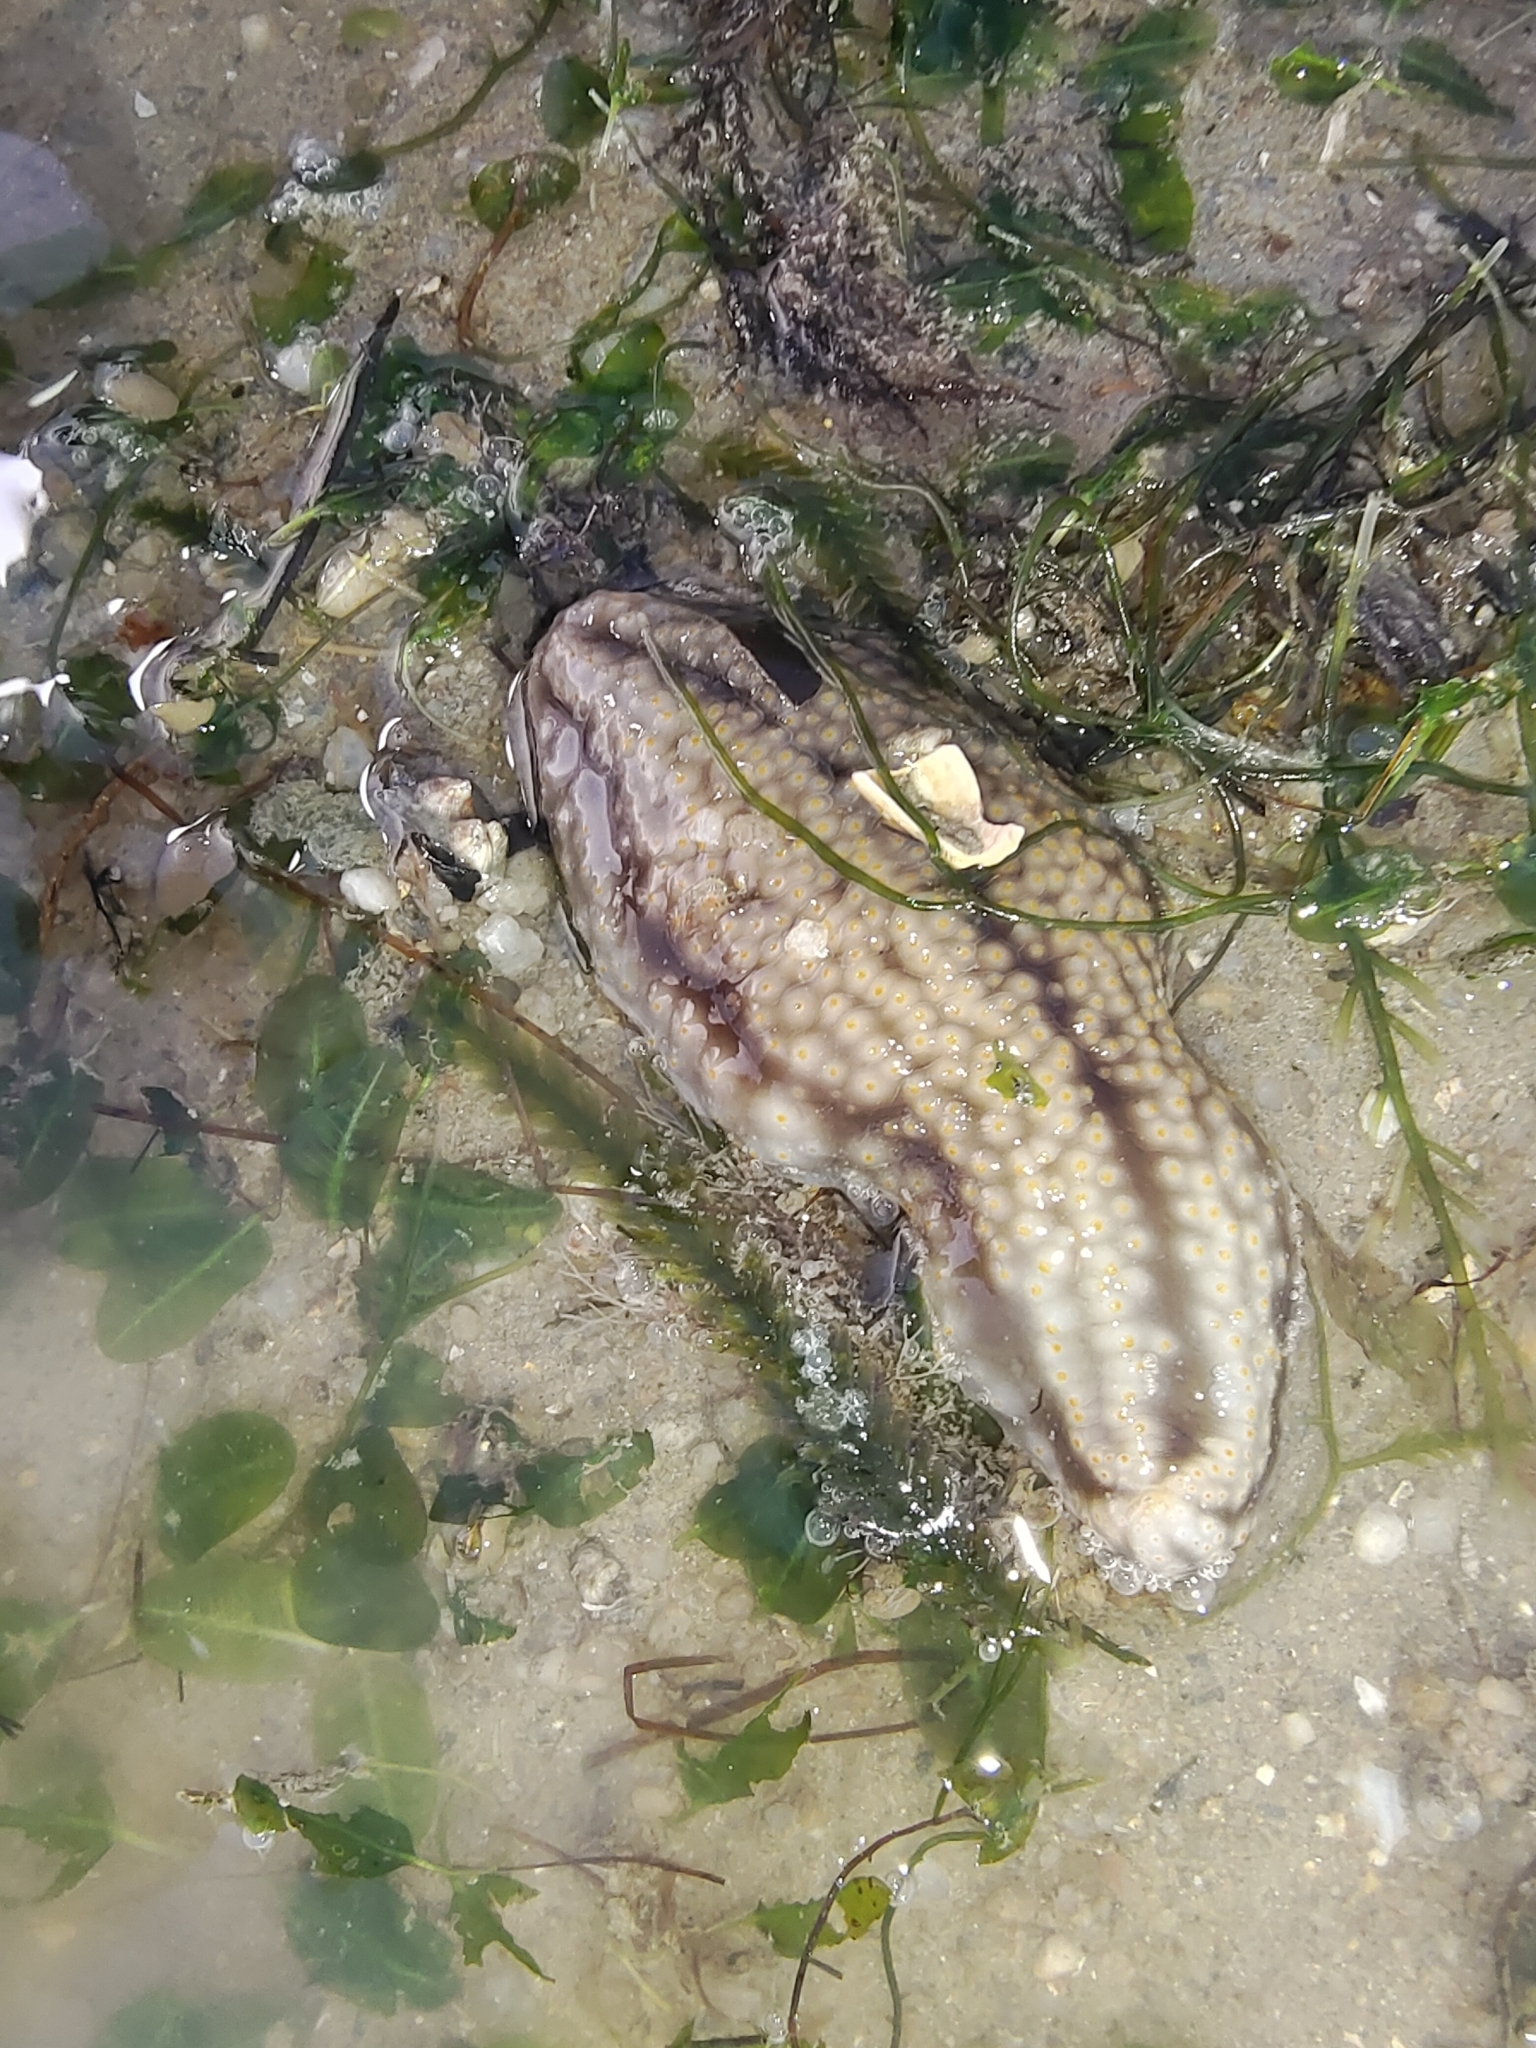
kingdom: Animalia
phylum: Echinodermata
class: Holothuroidea
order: Dendrochirotida
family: Sclerodactylidae
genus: Cladolabes
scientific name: Cladolabes hamatus
